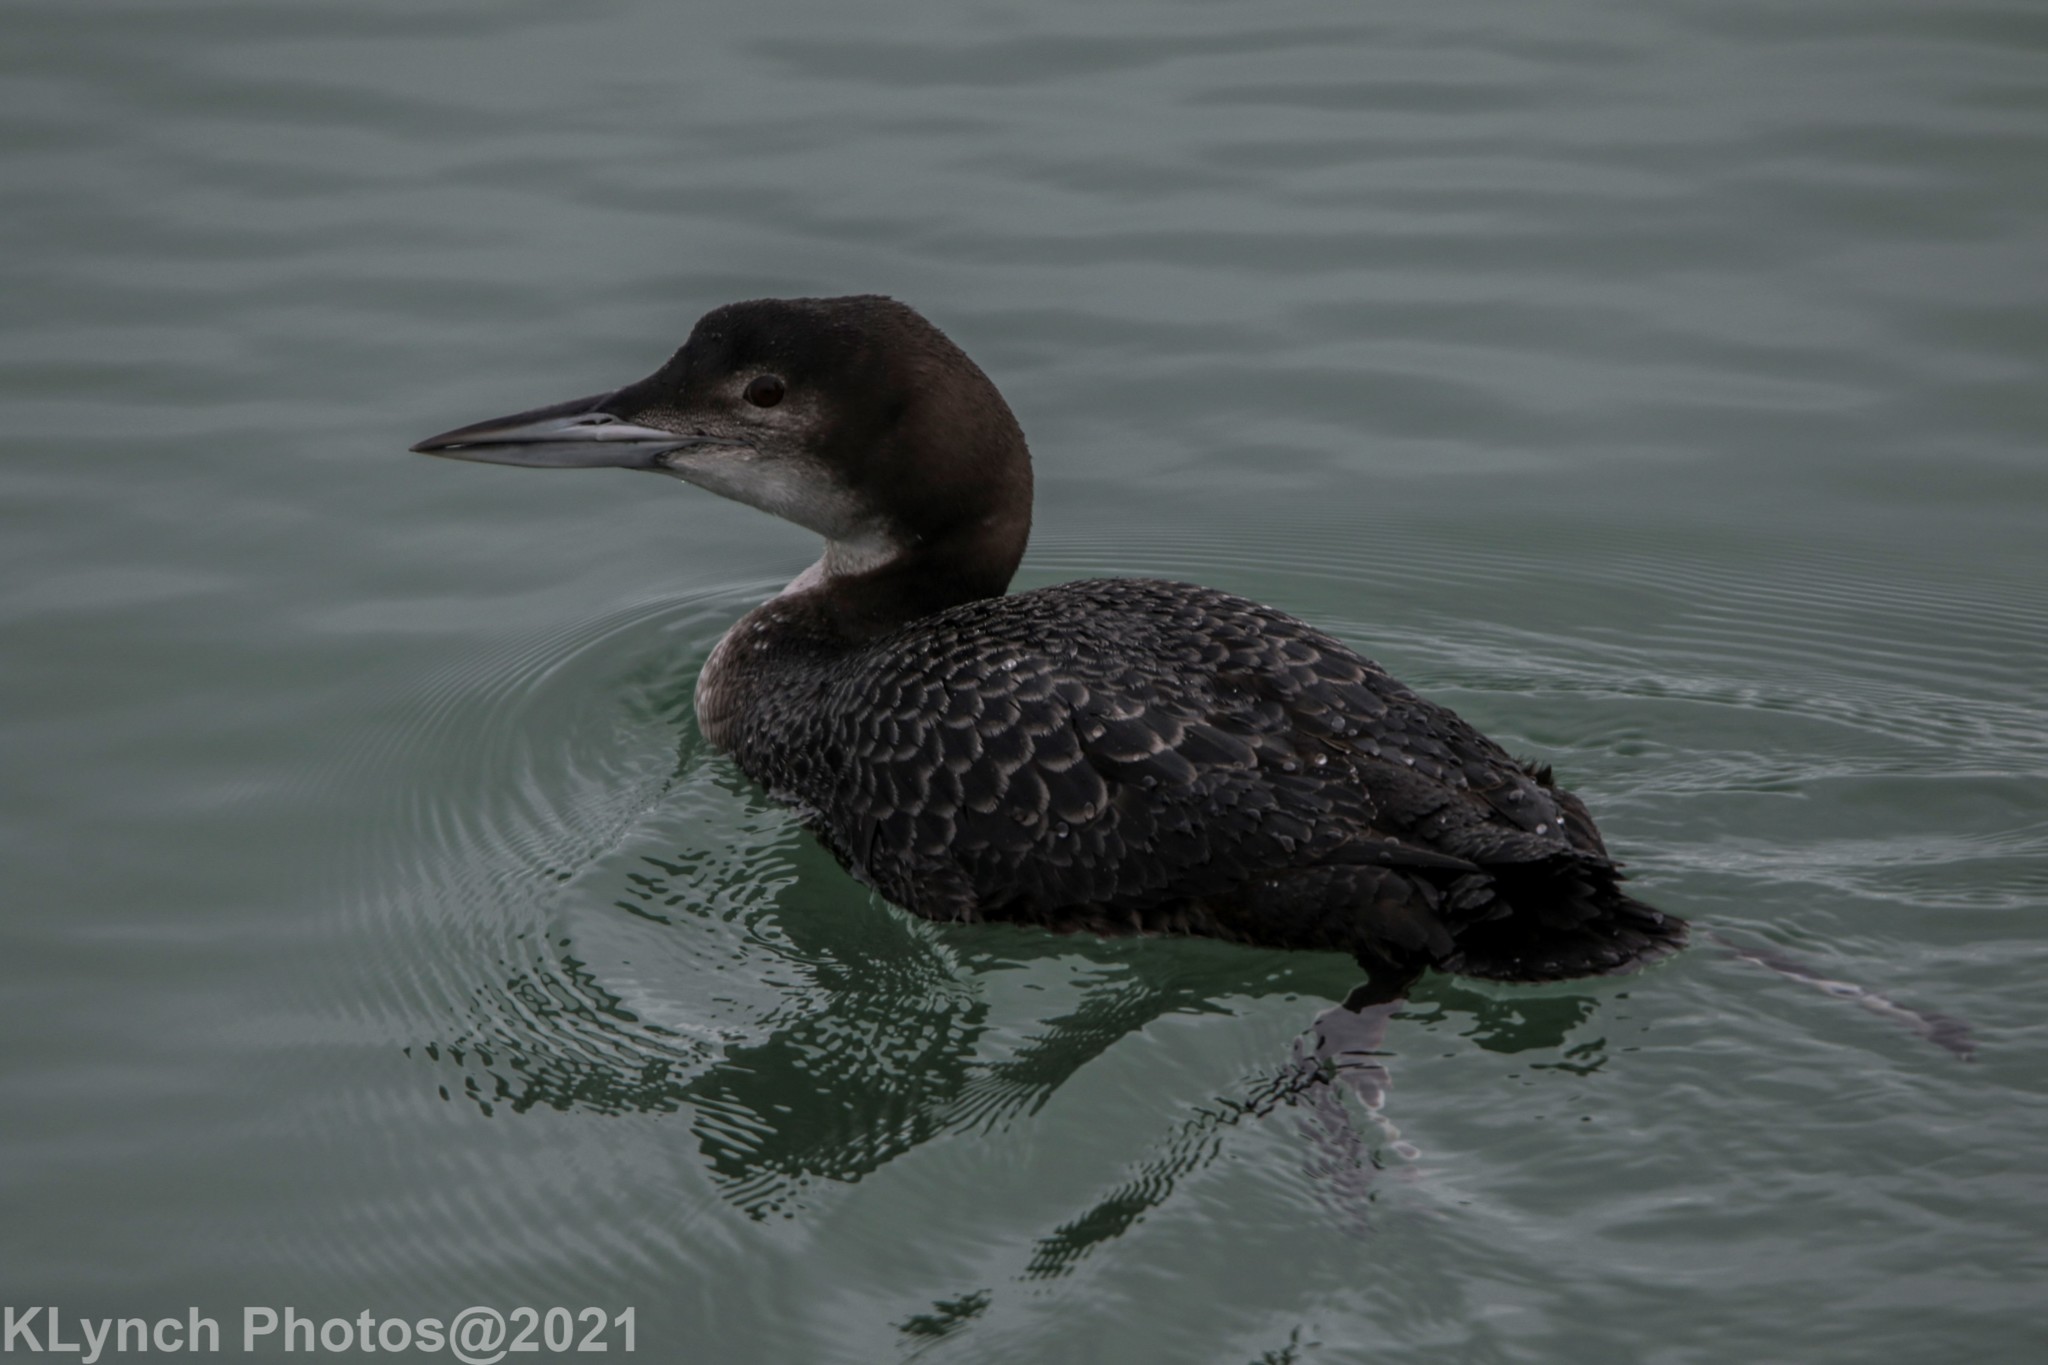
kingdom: Animalia
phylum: Chordata
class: Aves
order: Gaviiformes
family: Gaviidae
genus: Gavia
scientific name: Gavia immer
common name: Common loon
